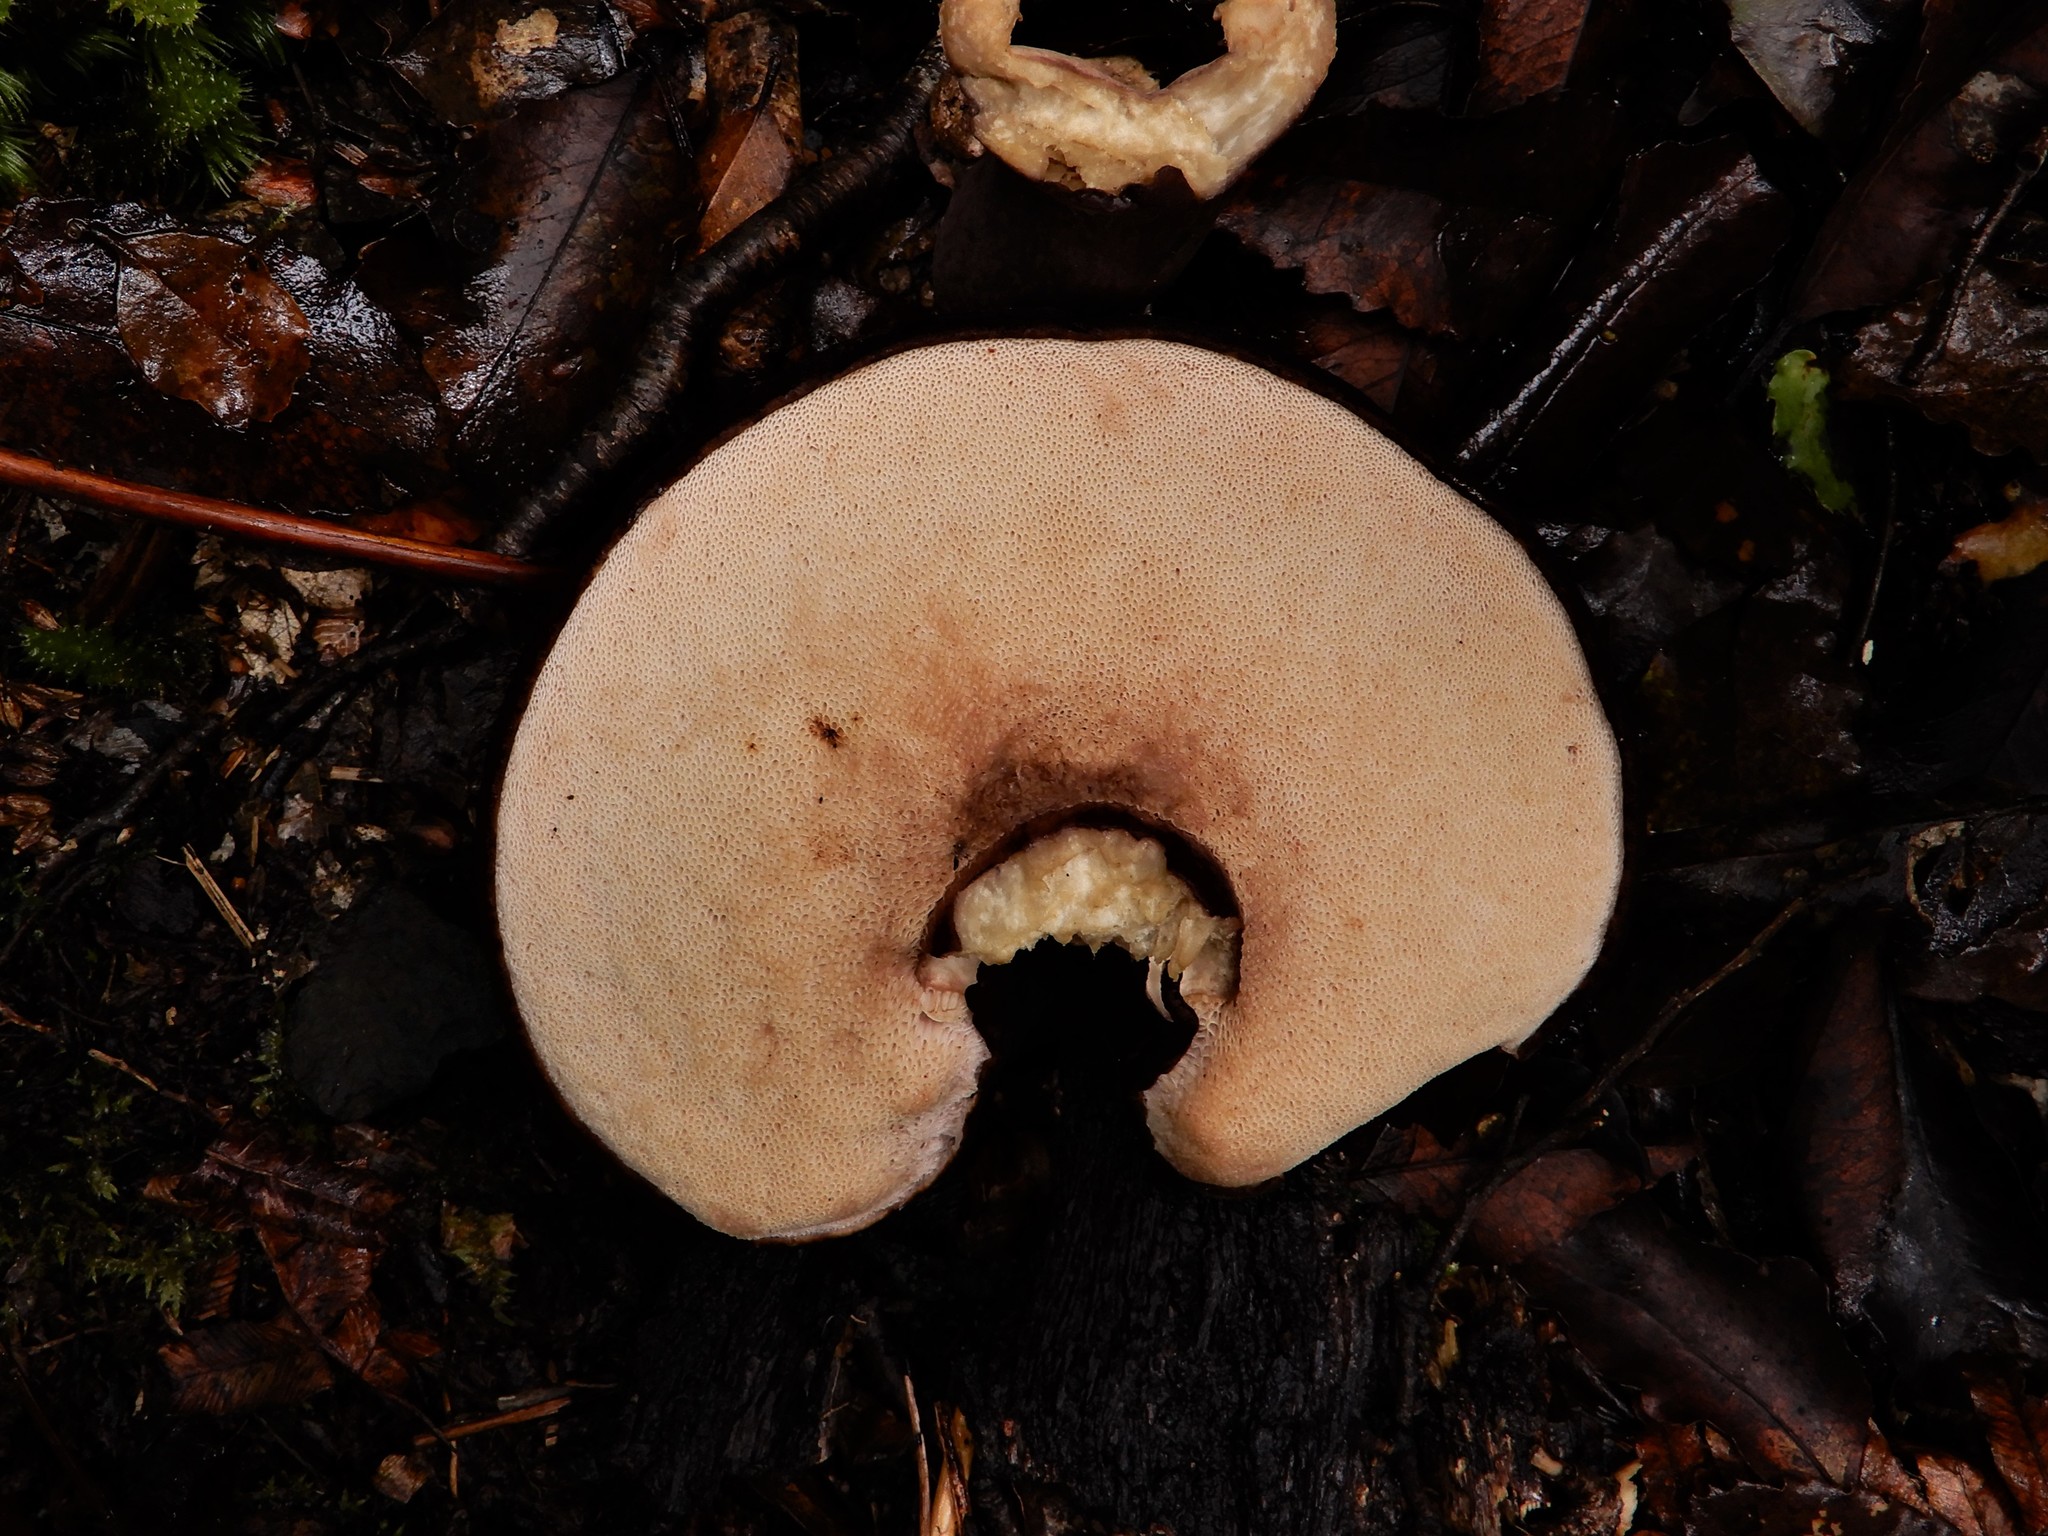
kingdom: Fungi
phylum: Basidiomycota
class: Agaricomycetes
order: Boletales
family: Boletaceae
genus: Porphyrellus
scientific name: Porphyrellus formosus
